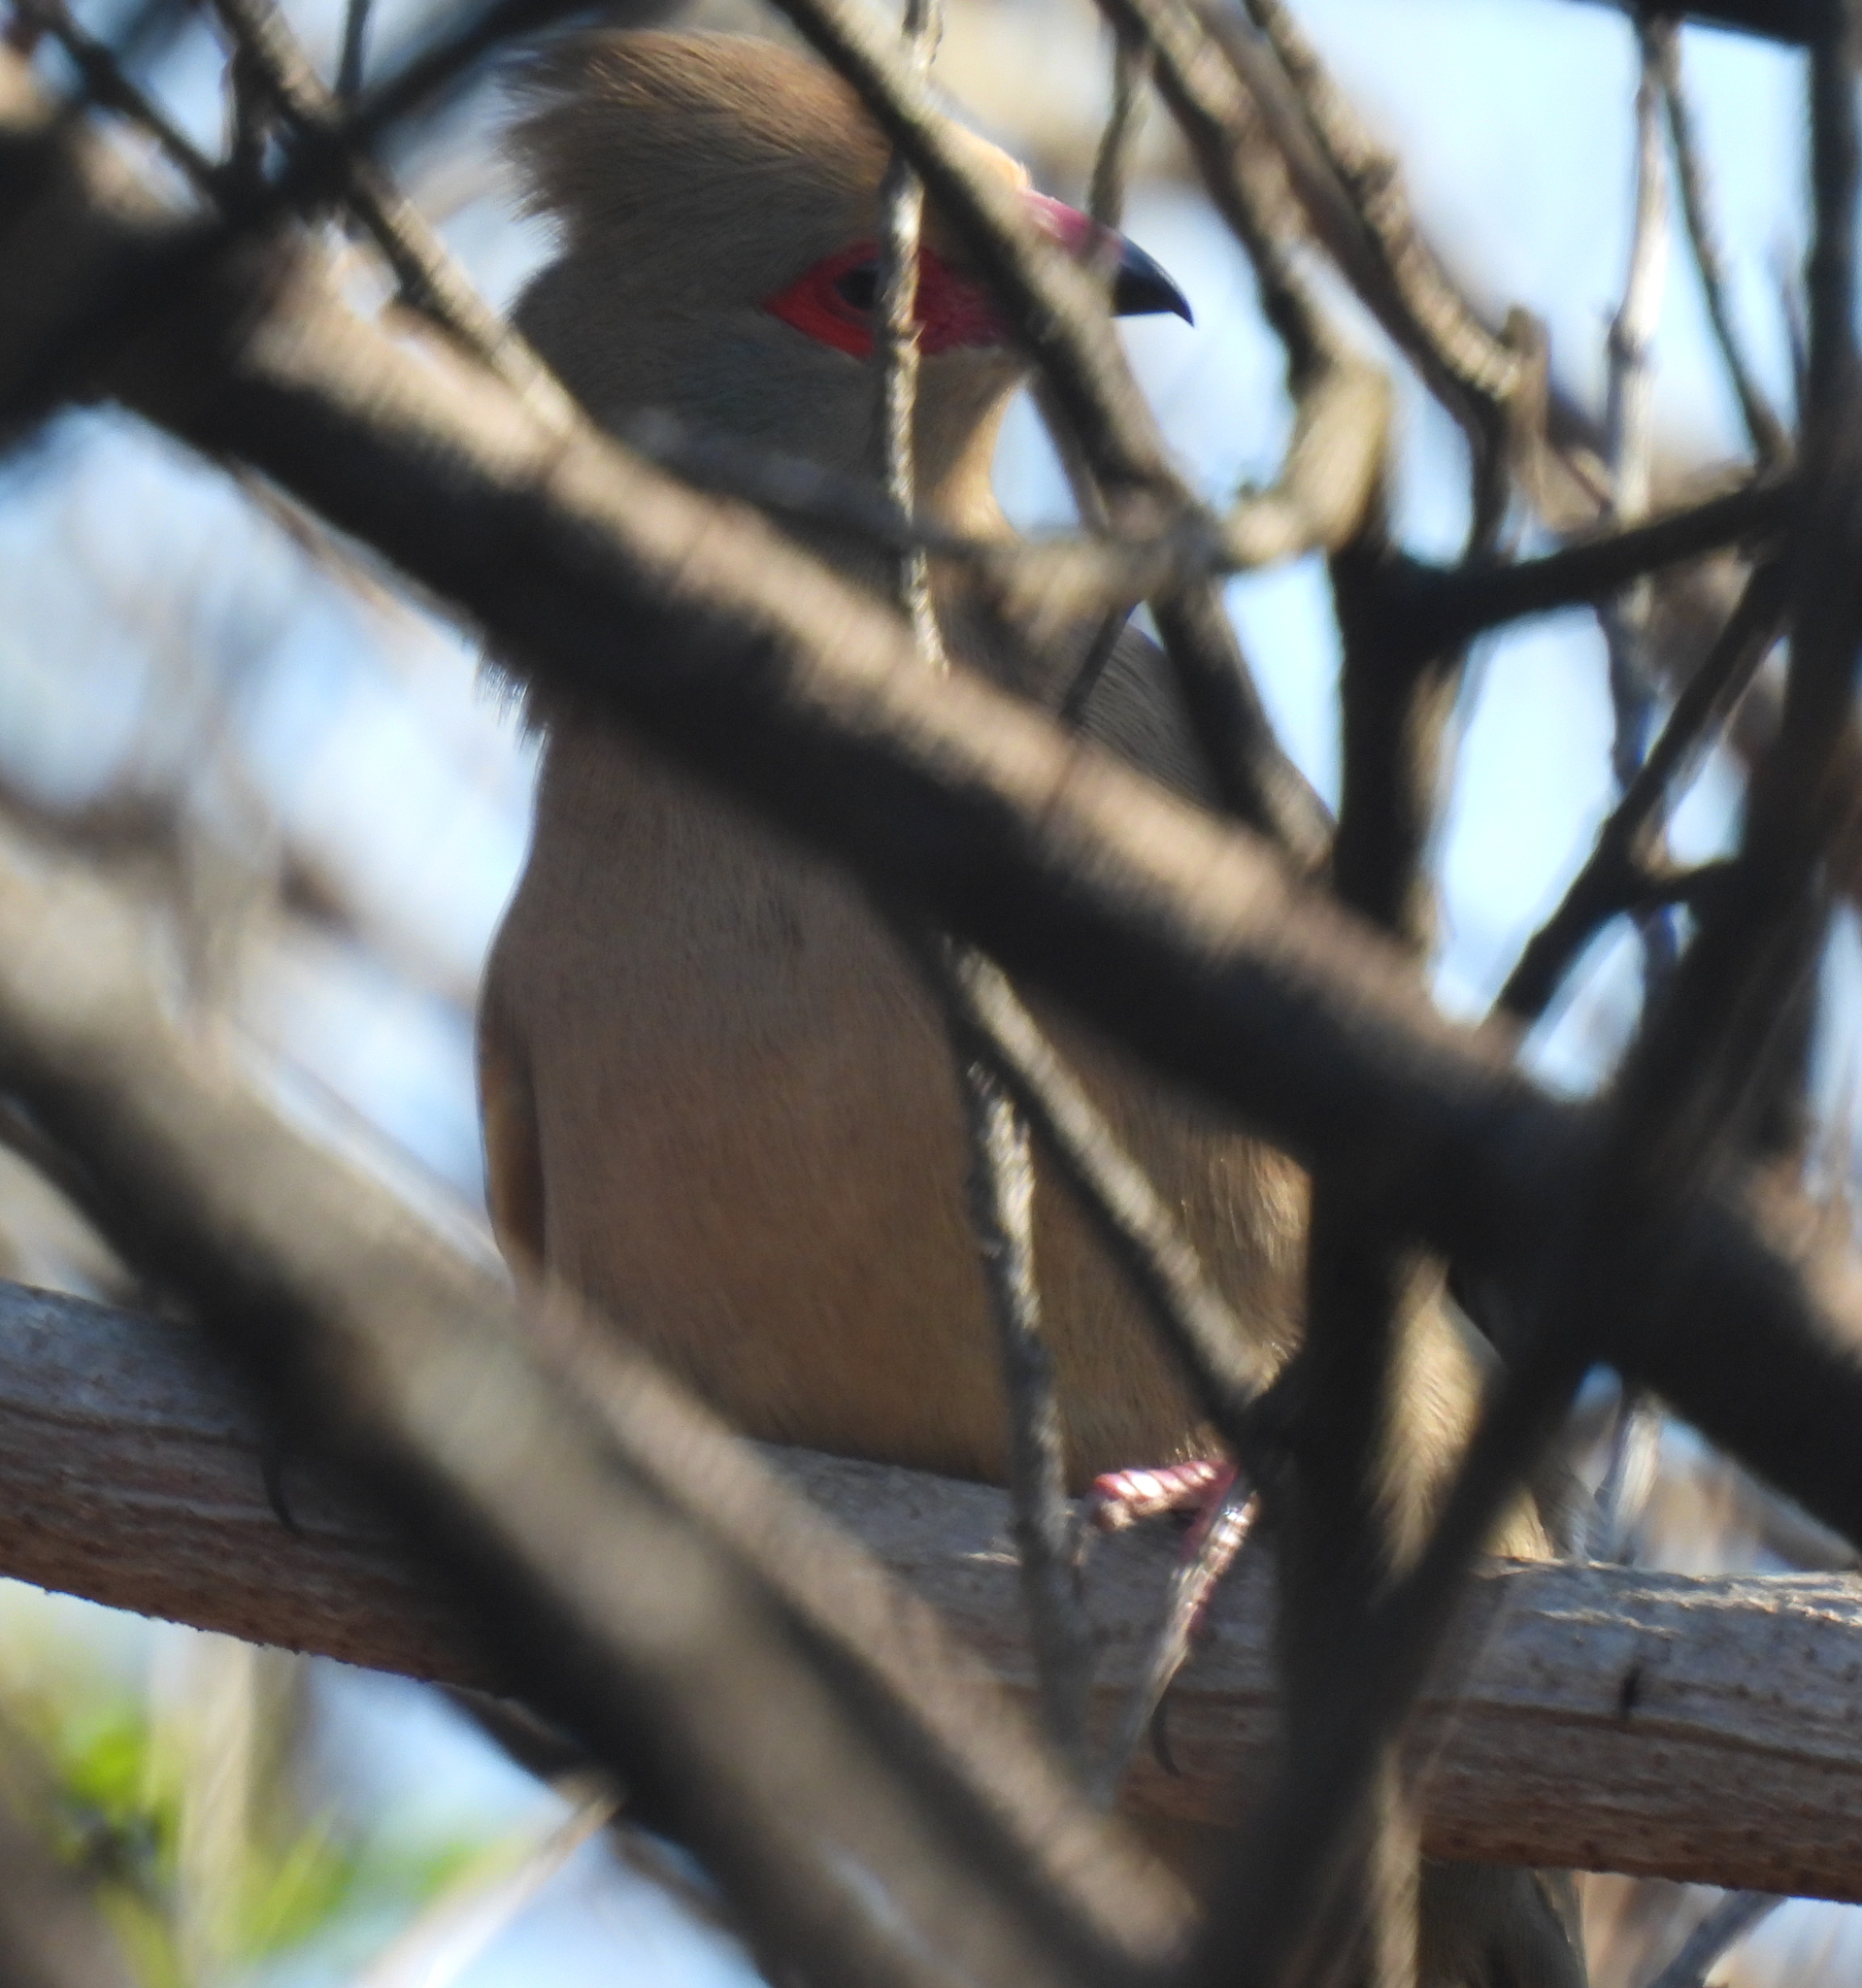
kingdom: Animalia
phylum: Chordata
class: Aves
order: Coliiformes
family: Coliidae
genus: Urocolius
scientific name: Urocolius indicus
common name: Red-faced mousebird
